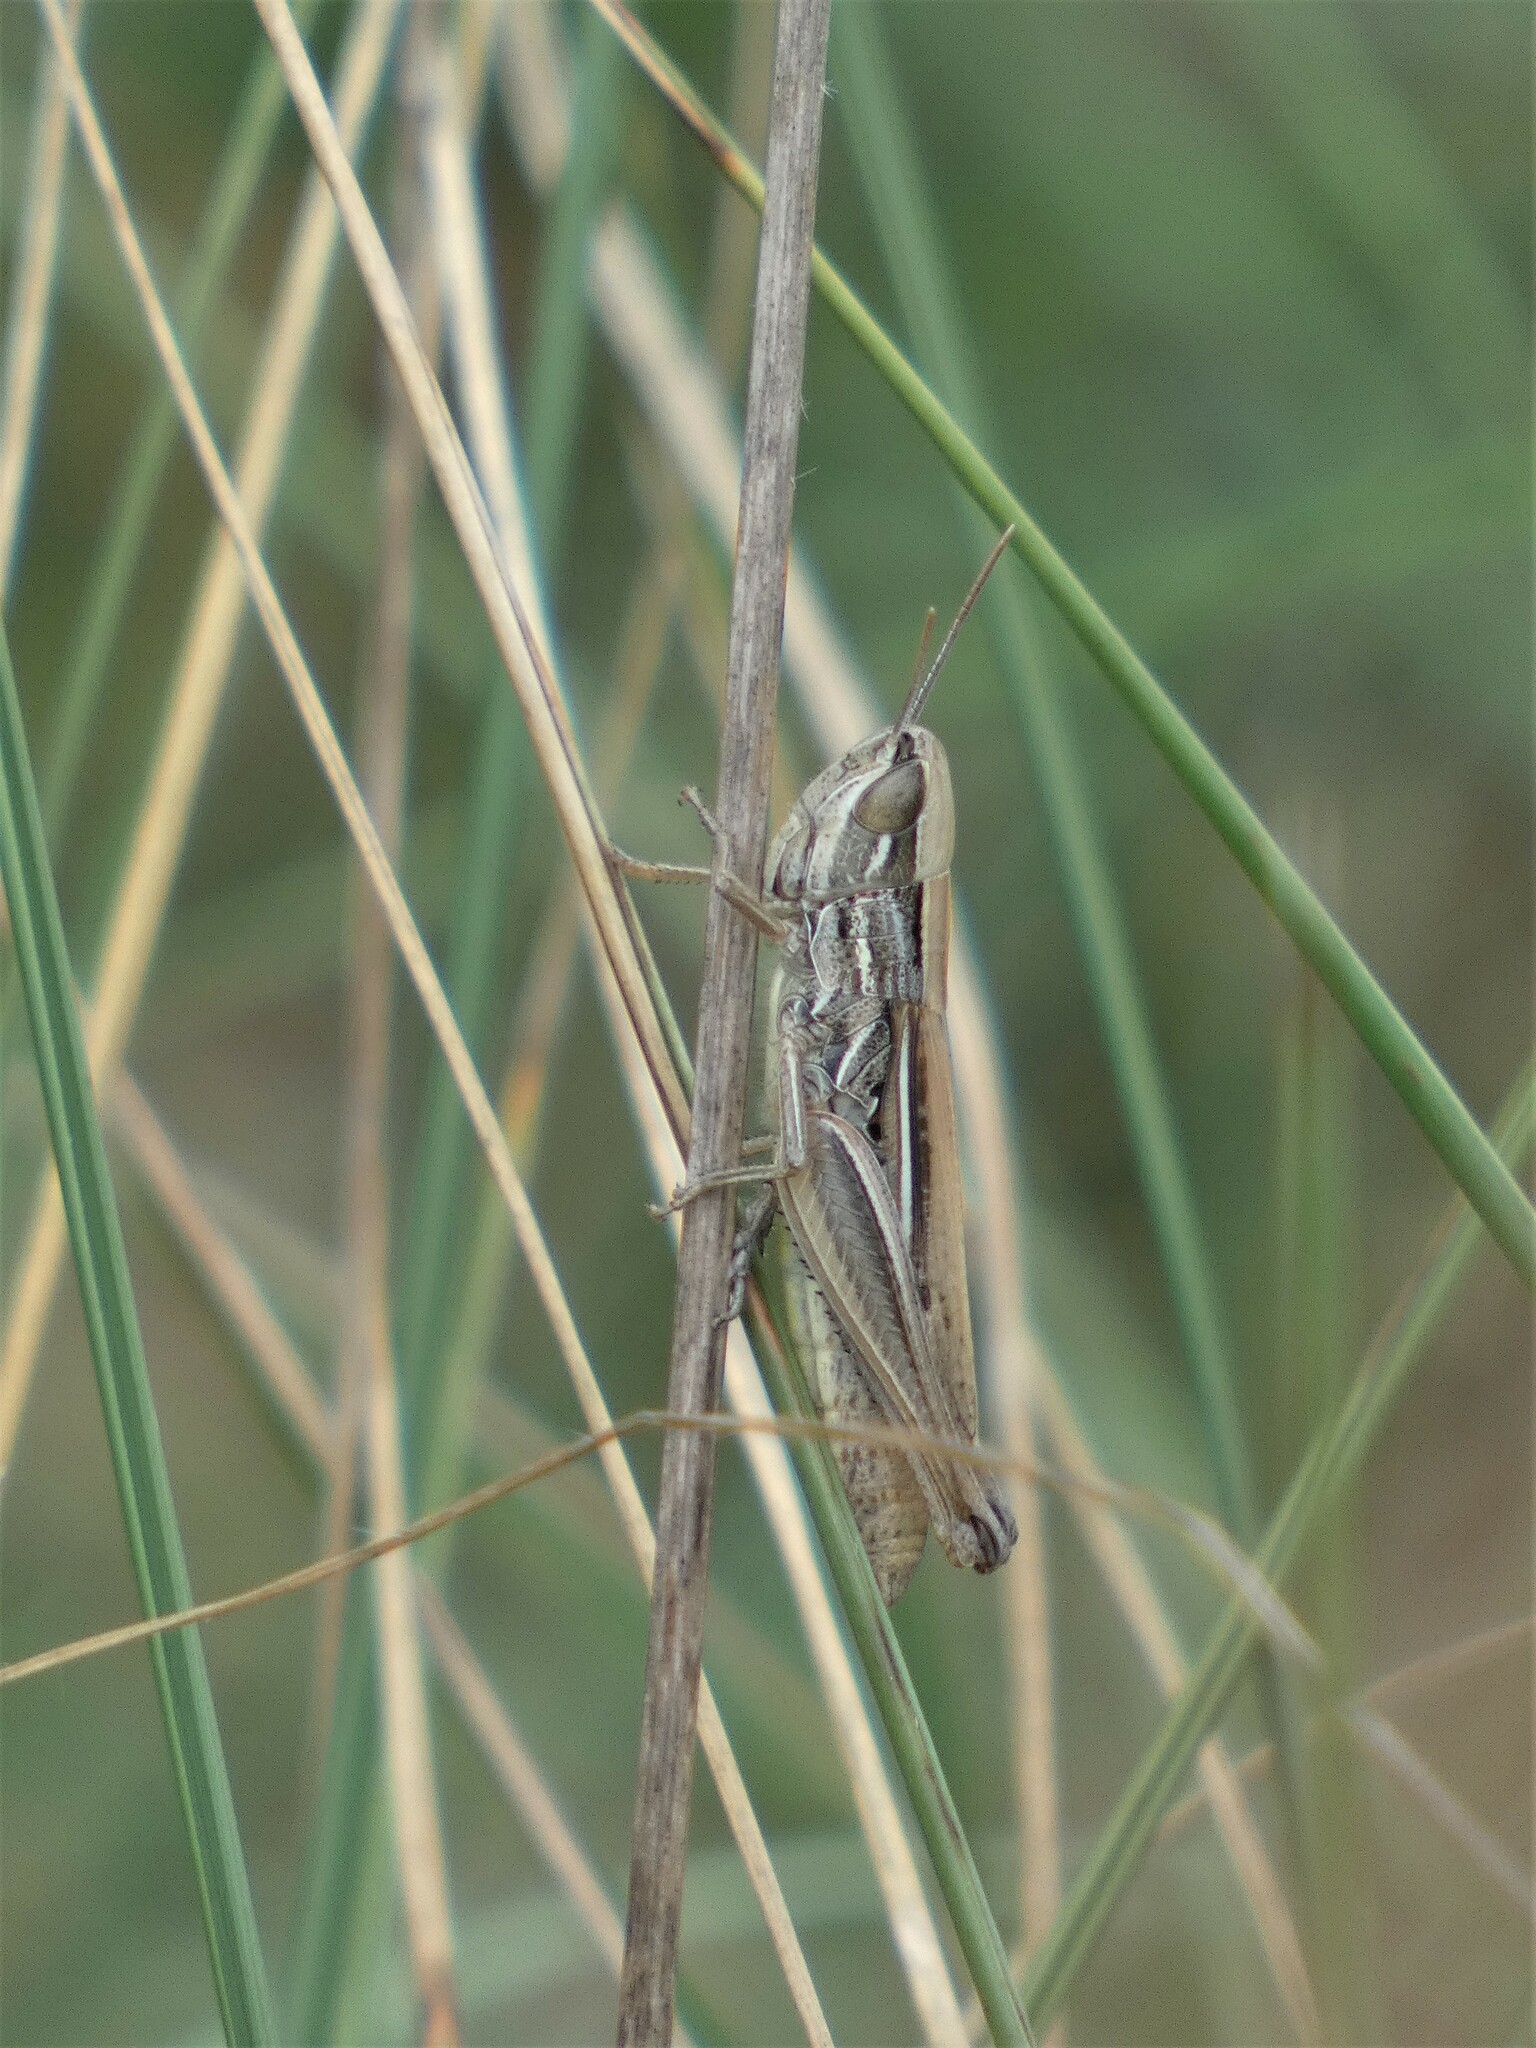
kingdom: Animalia
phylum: Arthropoda
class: Insecta
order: Orthoptera
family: Acrididae
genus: Euchorthippus
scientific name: Euchorthippus elegantulus
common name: Elegant straw grasshopper
